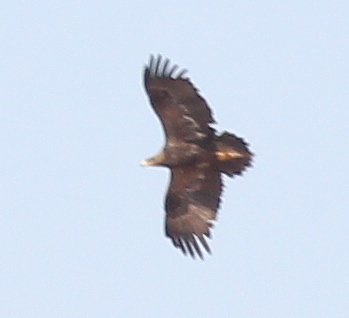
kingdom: Animalia
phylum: Chordata
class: Aves
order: Accipitriformes
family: Accipitridae
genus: Aquila
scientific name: Aquila pomarina
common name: Lesser spotted eagle
